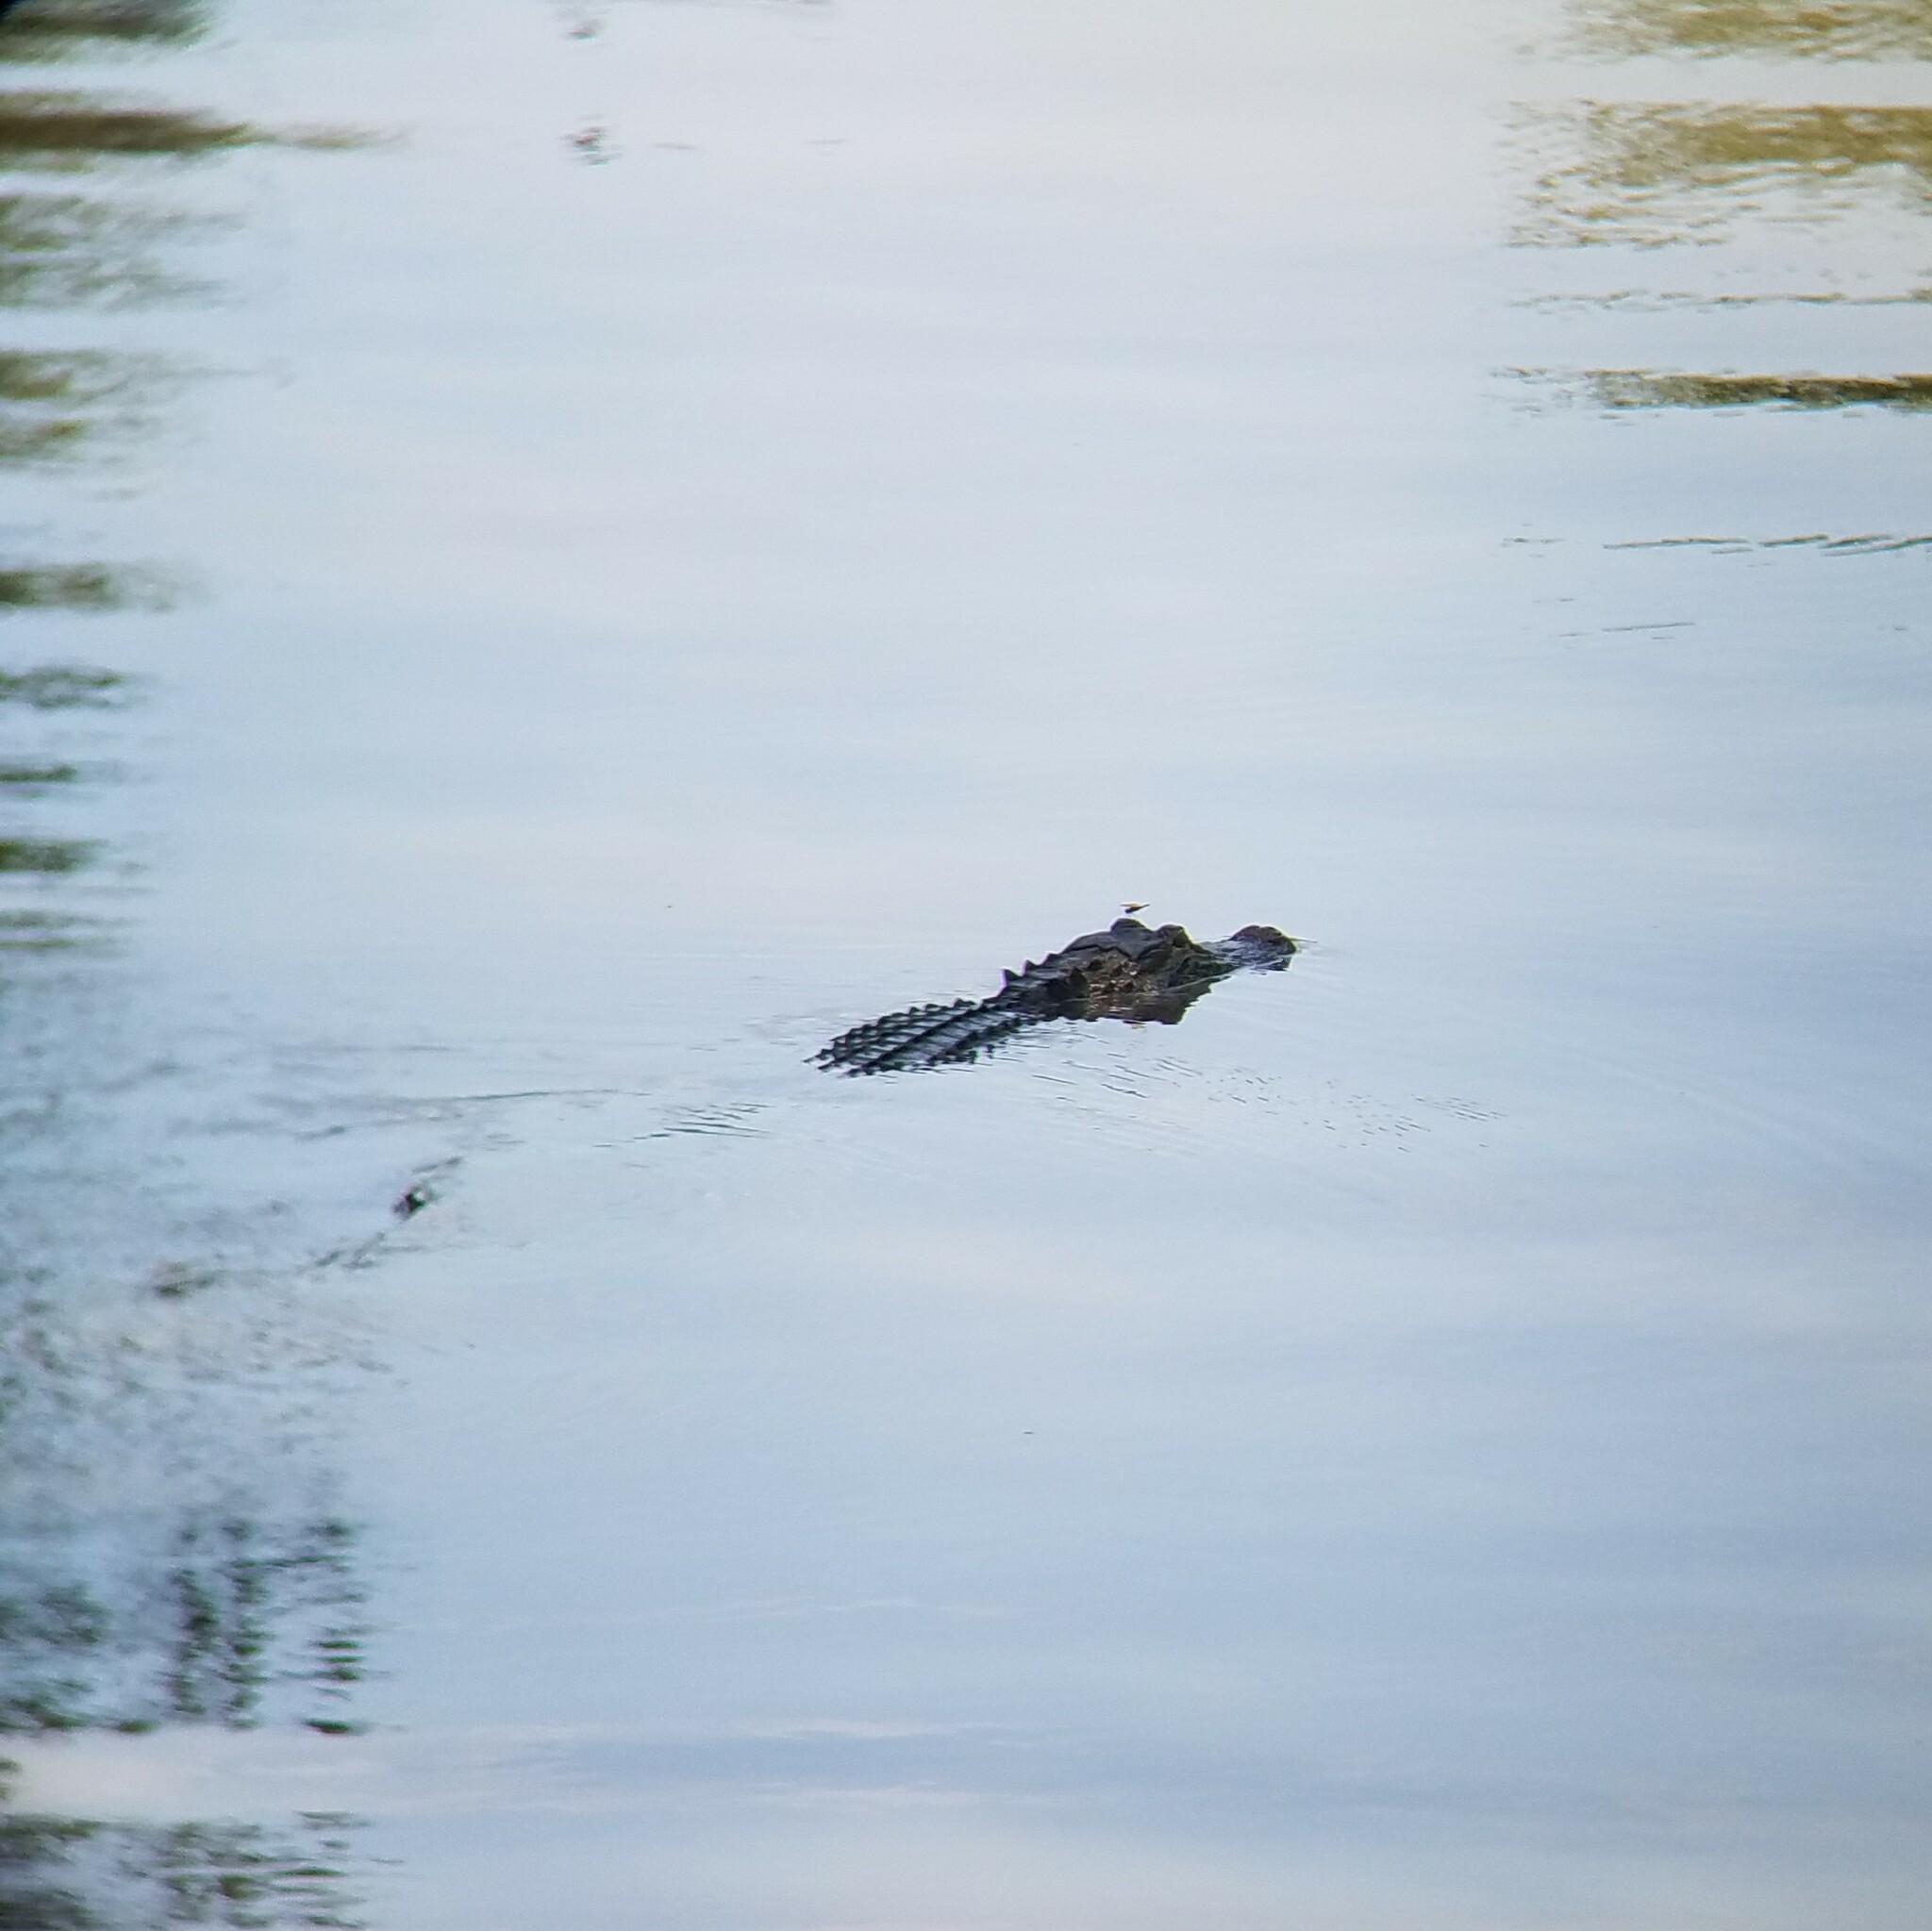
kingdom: Animalia
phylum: Chordata
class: Crocodylia
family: Alligatoridae
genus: Alligator
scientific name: Alligator mississippiensis
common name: American alligator
